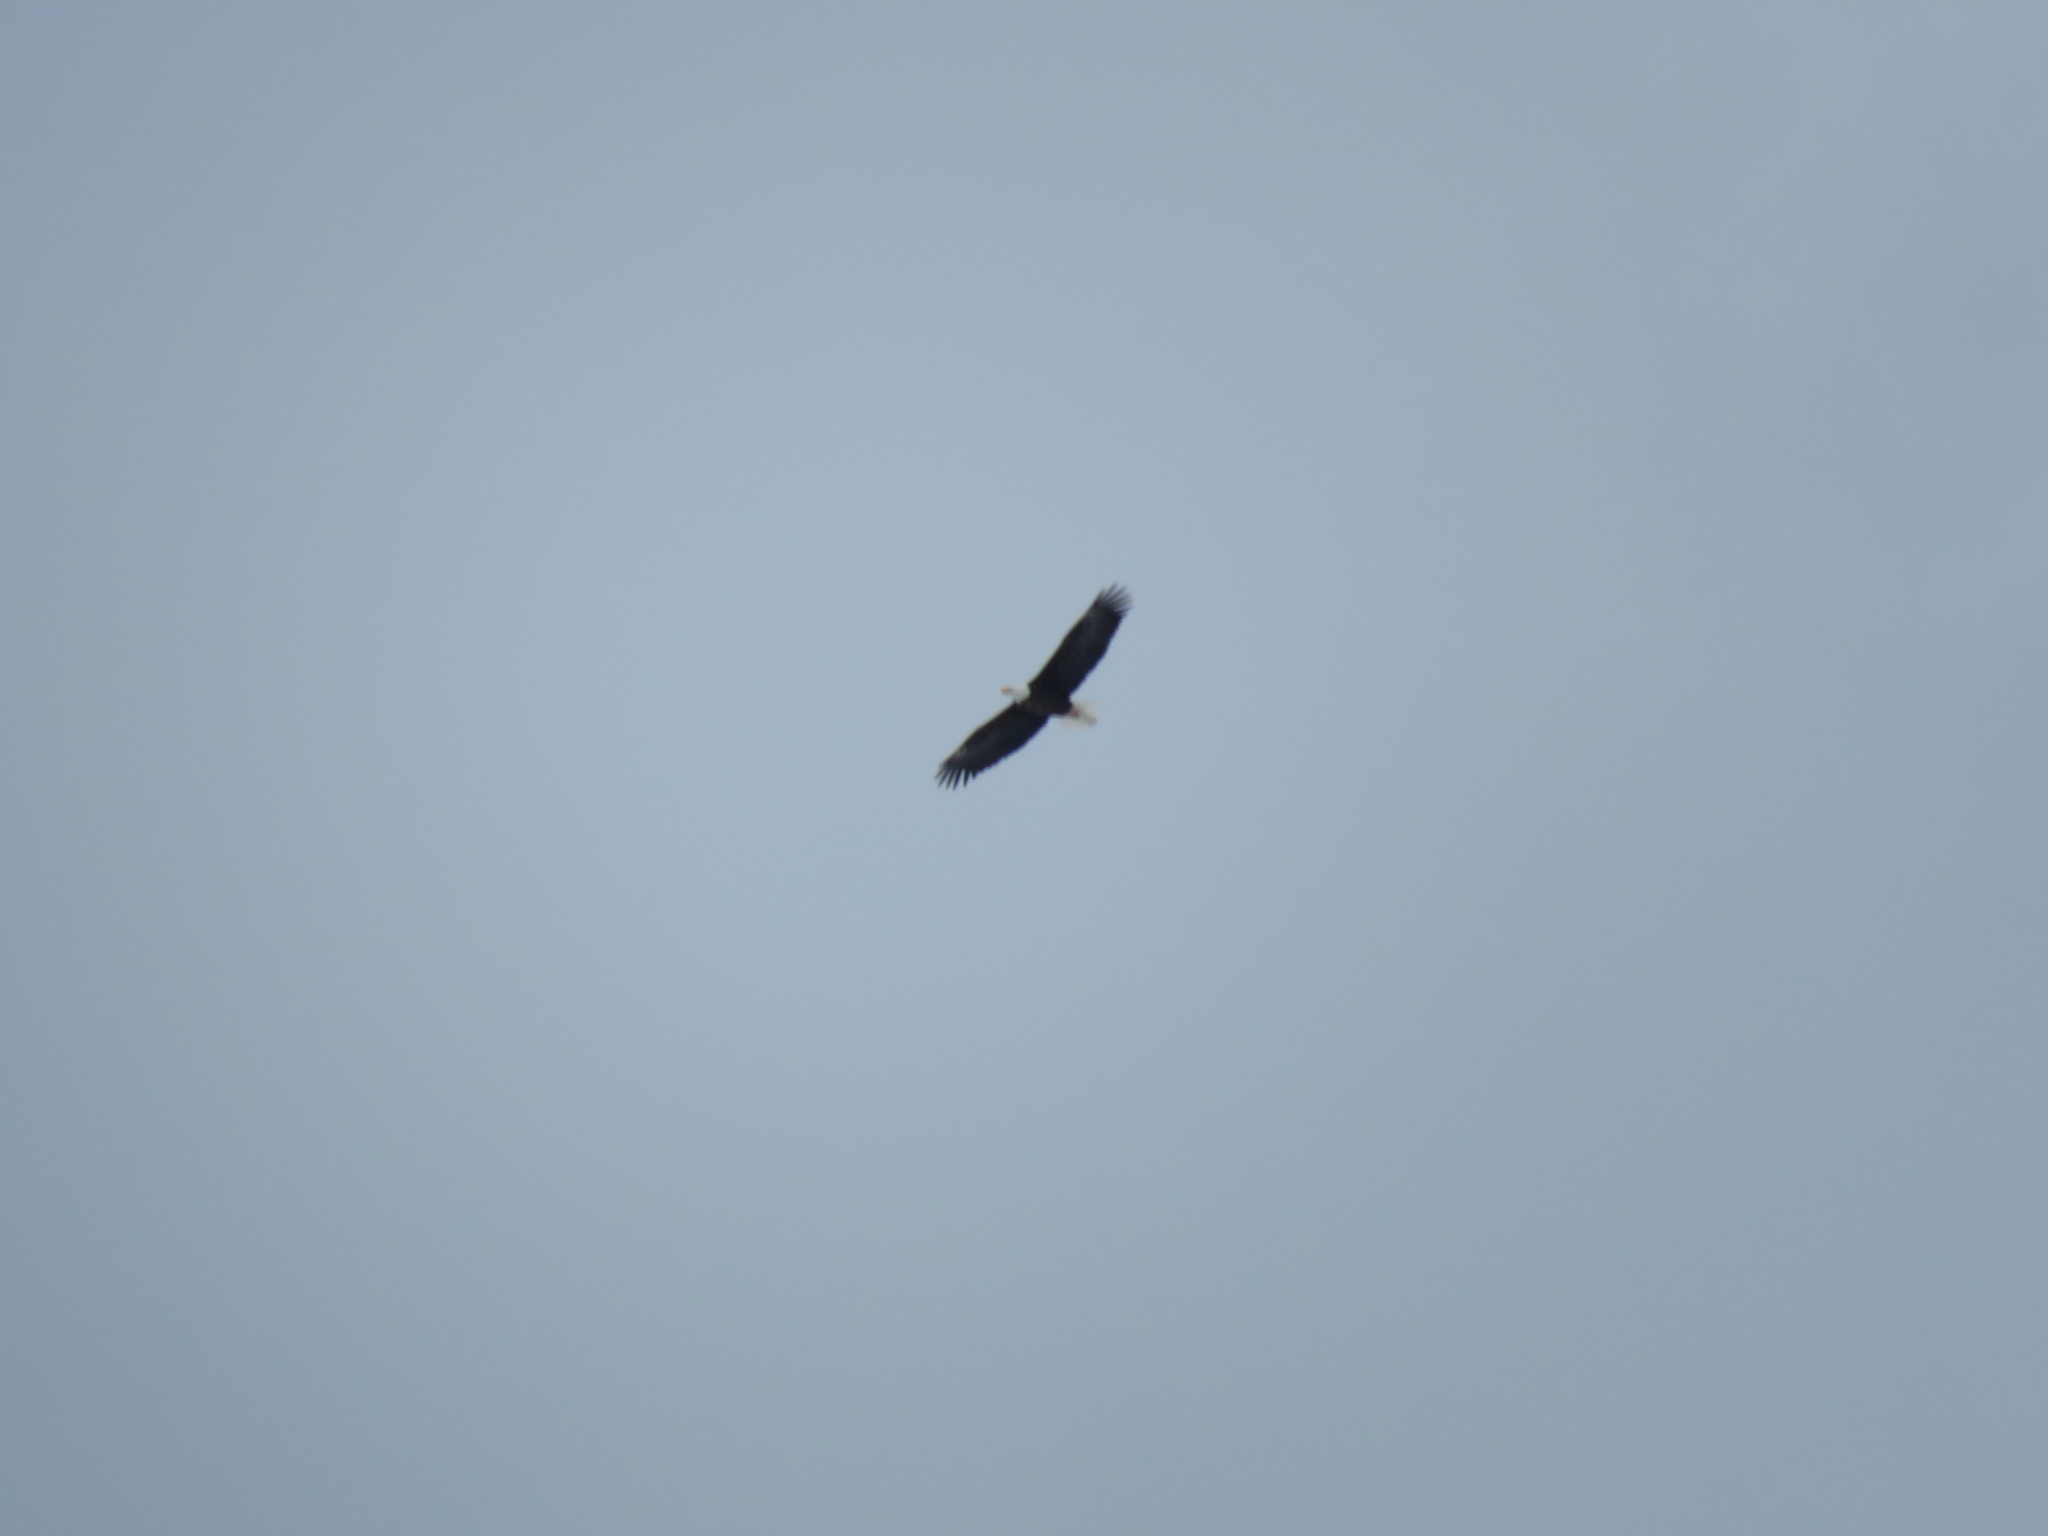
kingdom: Animalia
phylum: Chordata
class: Aves
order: Accipitriformes
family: Accipitridae
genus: Haliaeetus
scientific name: Haliaeetus leucocephalus
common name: Bald eagle
